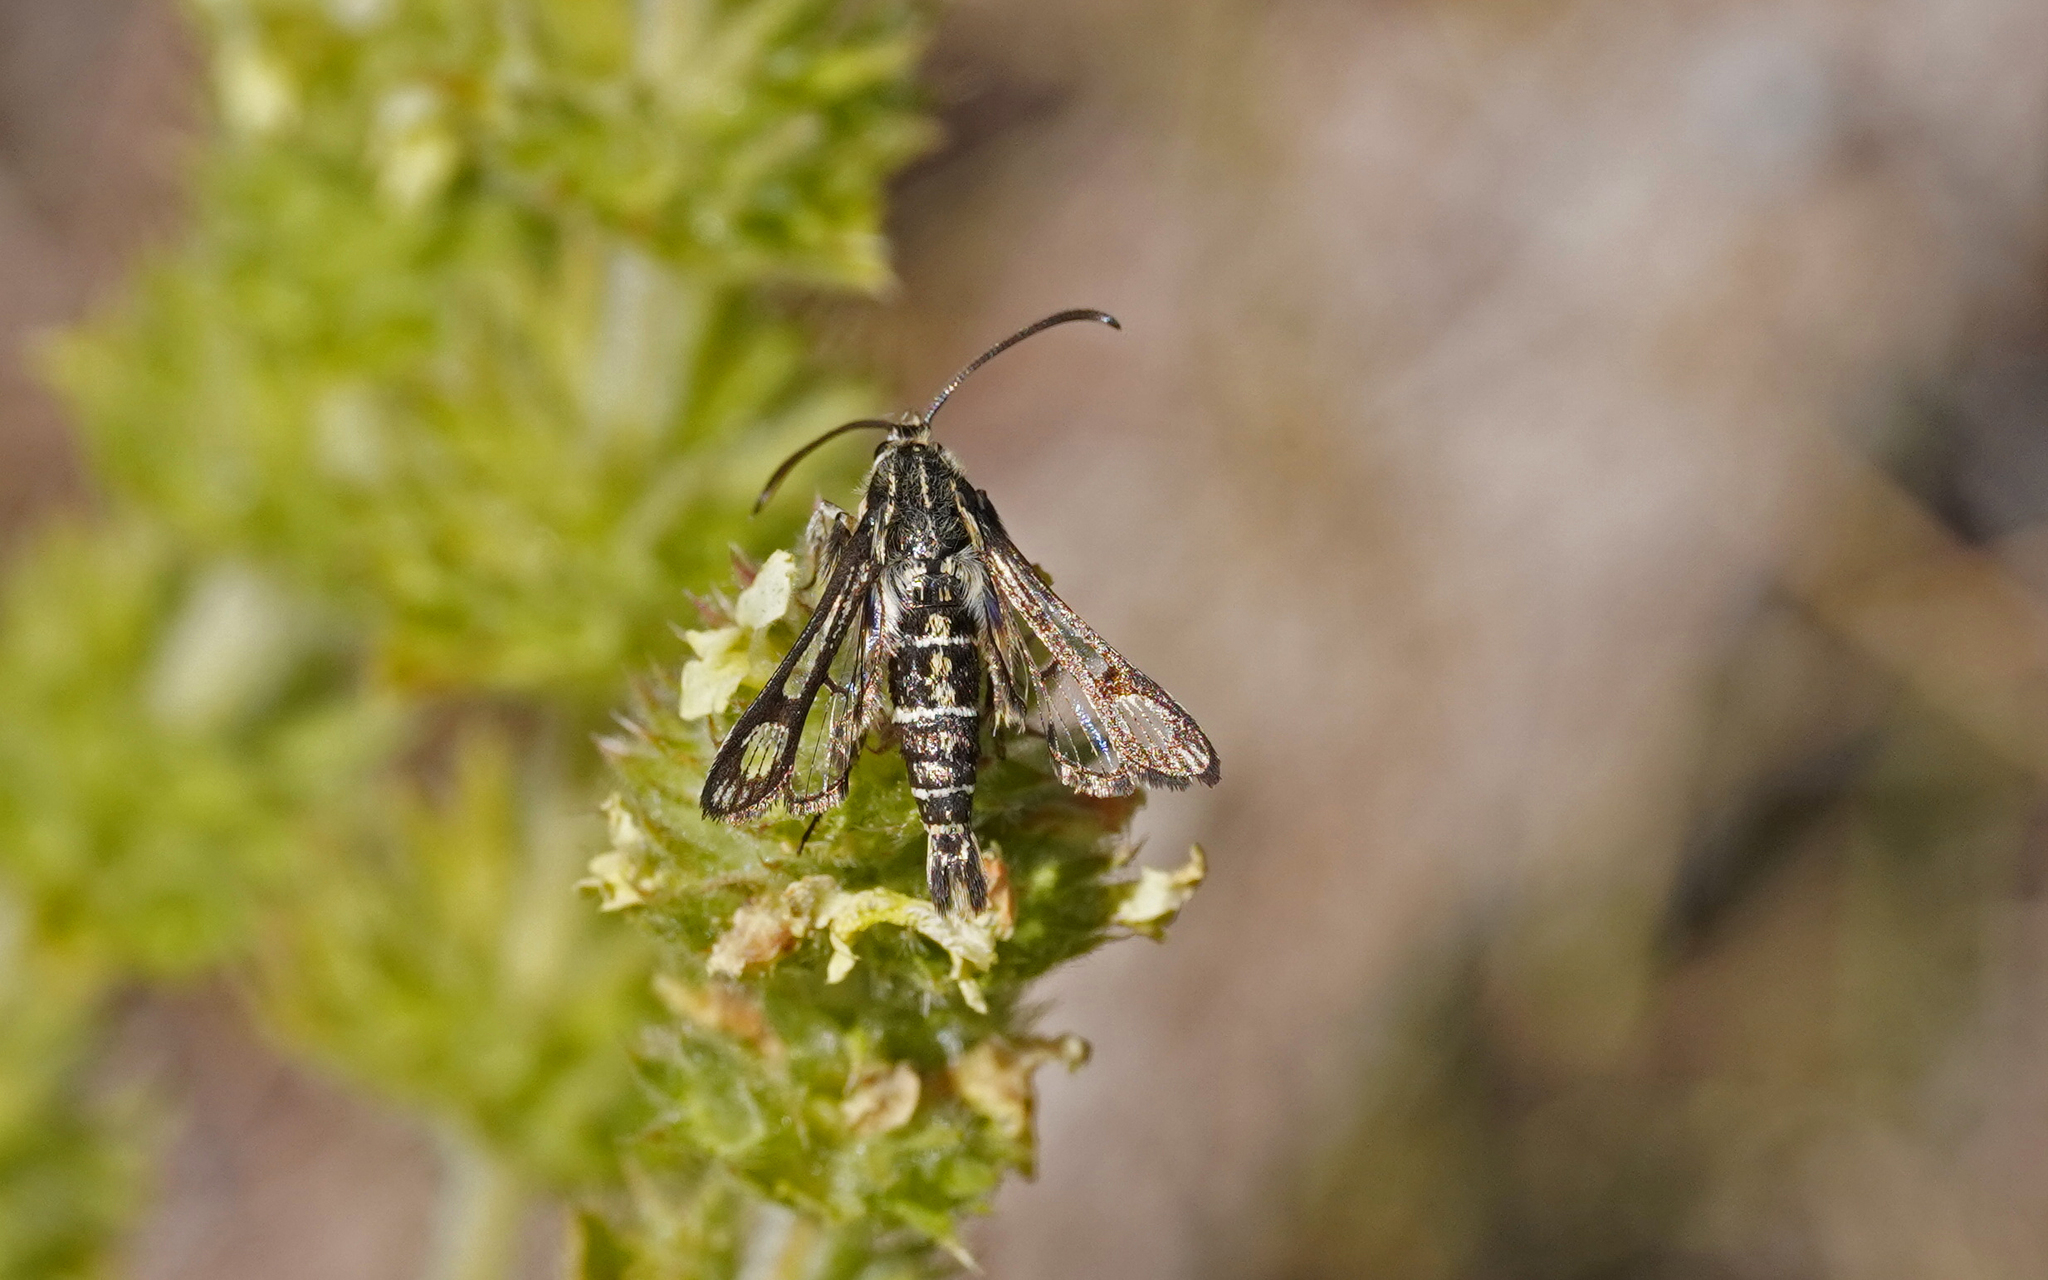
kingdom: Animalia
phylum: Arthropoda
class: Insecta
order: Lepidoptera
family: Sesiidae
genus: Chamaesphecia
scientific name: Chamaesphecia bibioniformis
